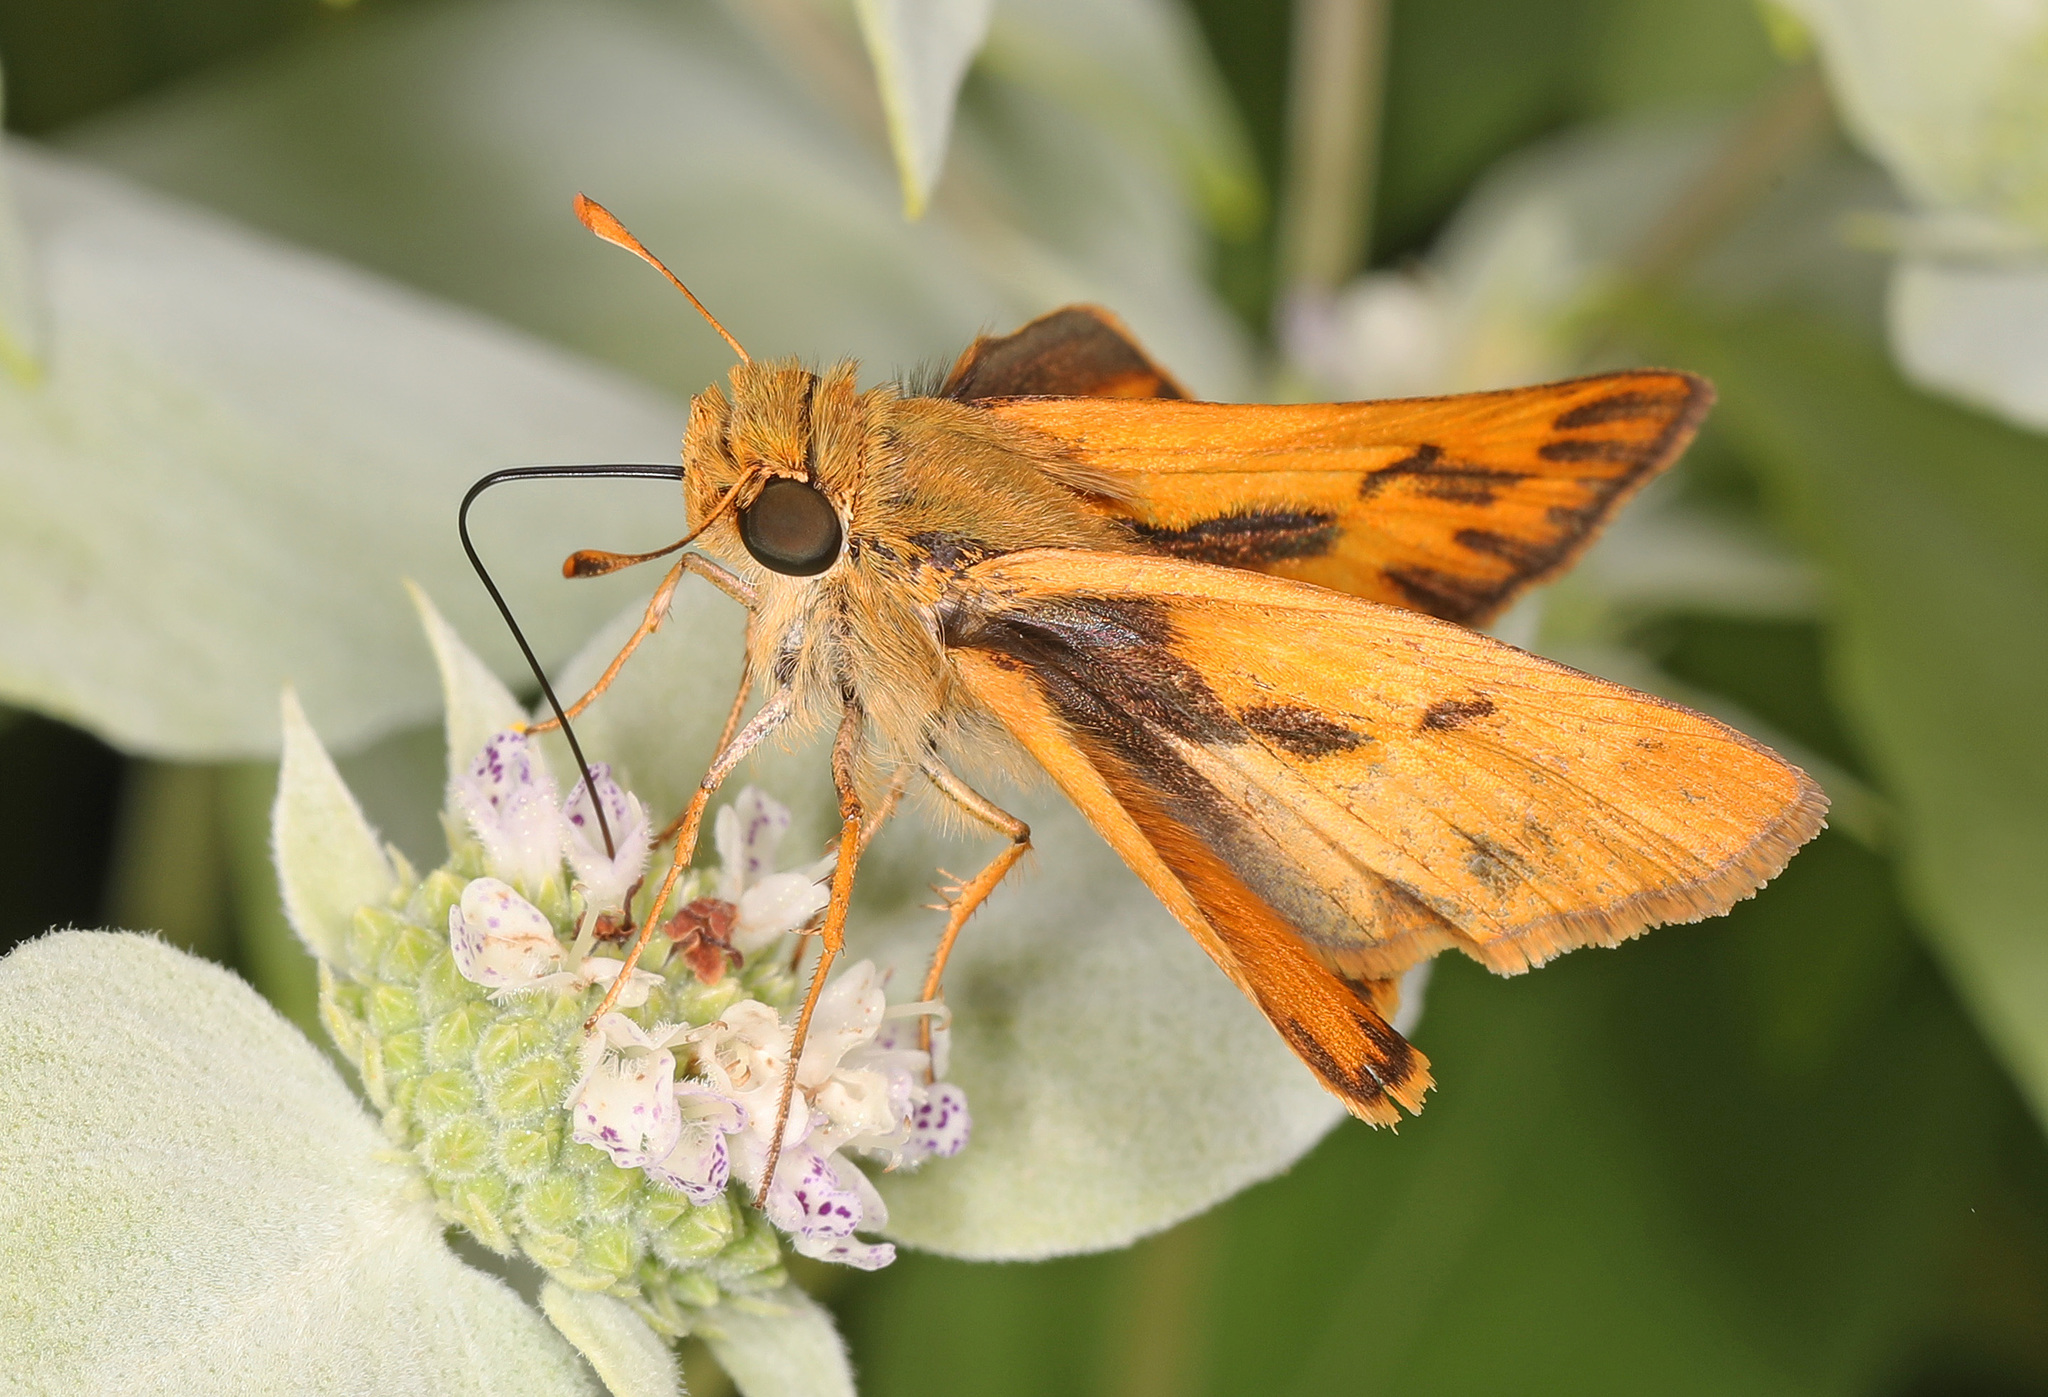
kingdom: Animalia
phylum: Arthropoda
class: Insecta
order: Lepidoptera
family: Hesperiidae
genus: Hylephila
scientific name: Hylephila phyleus
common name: Fiery skipper
